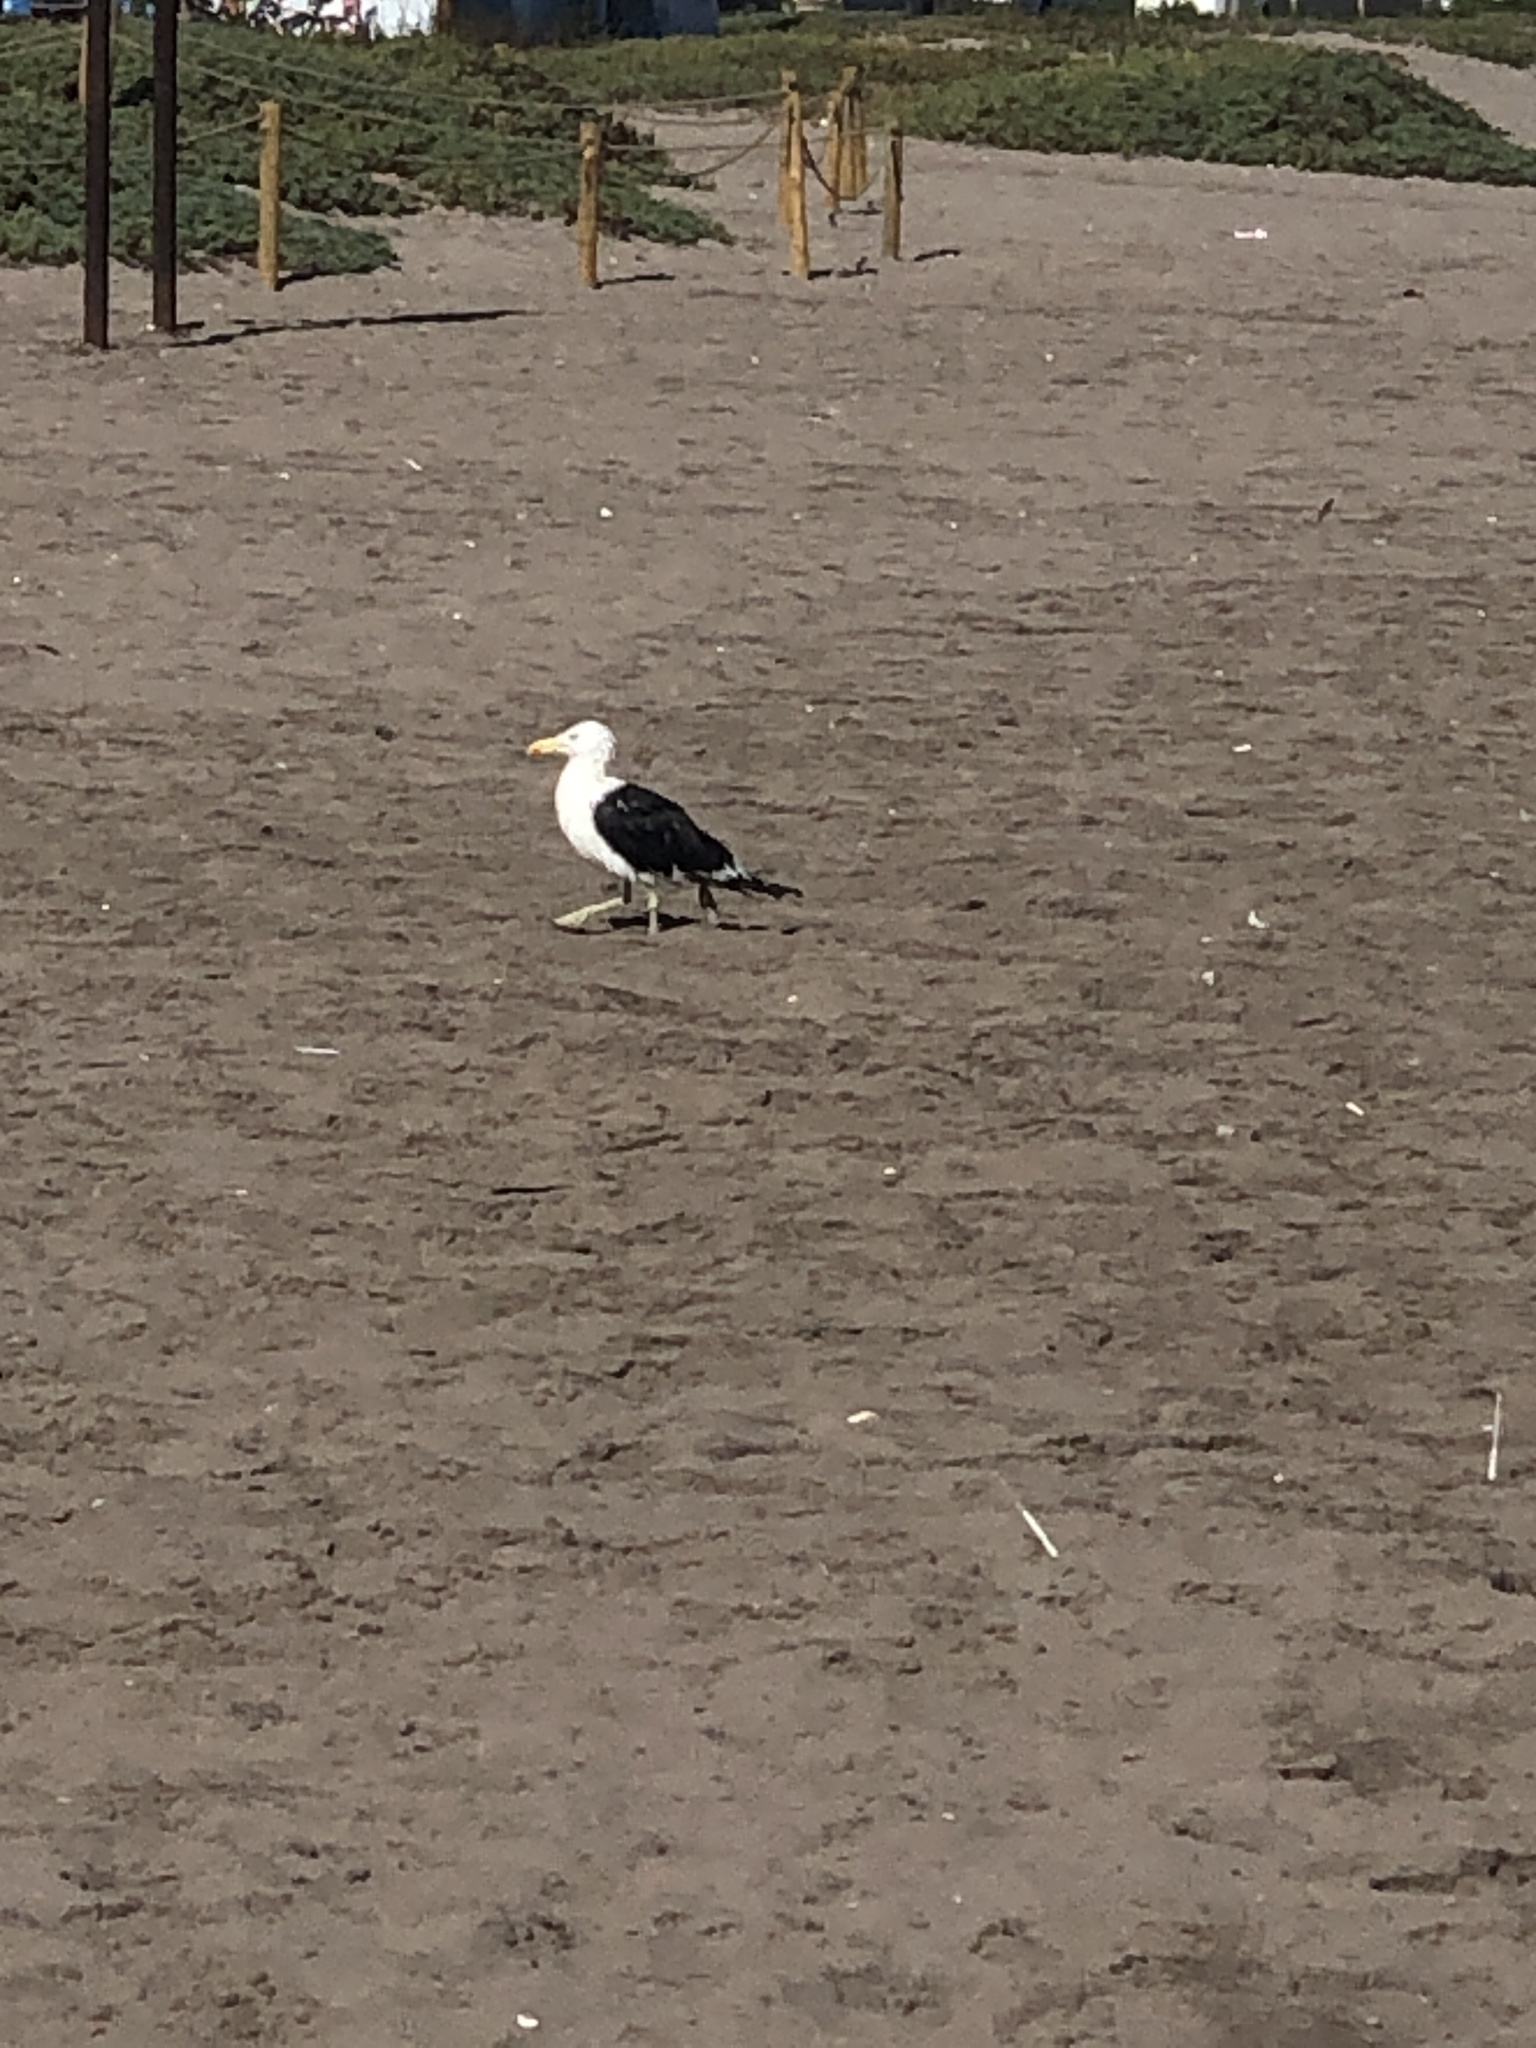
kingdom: Animalia
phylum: Chordata
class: Aves
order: Charadriiformes
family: Laridae
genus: Larus
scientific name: Larus dominicanus
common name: Kelp gull
